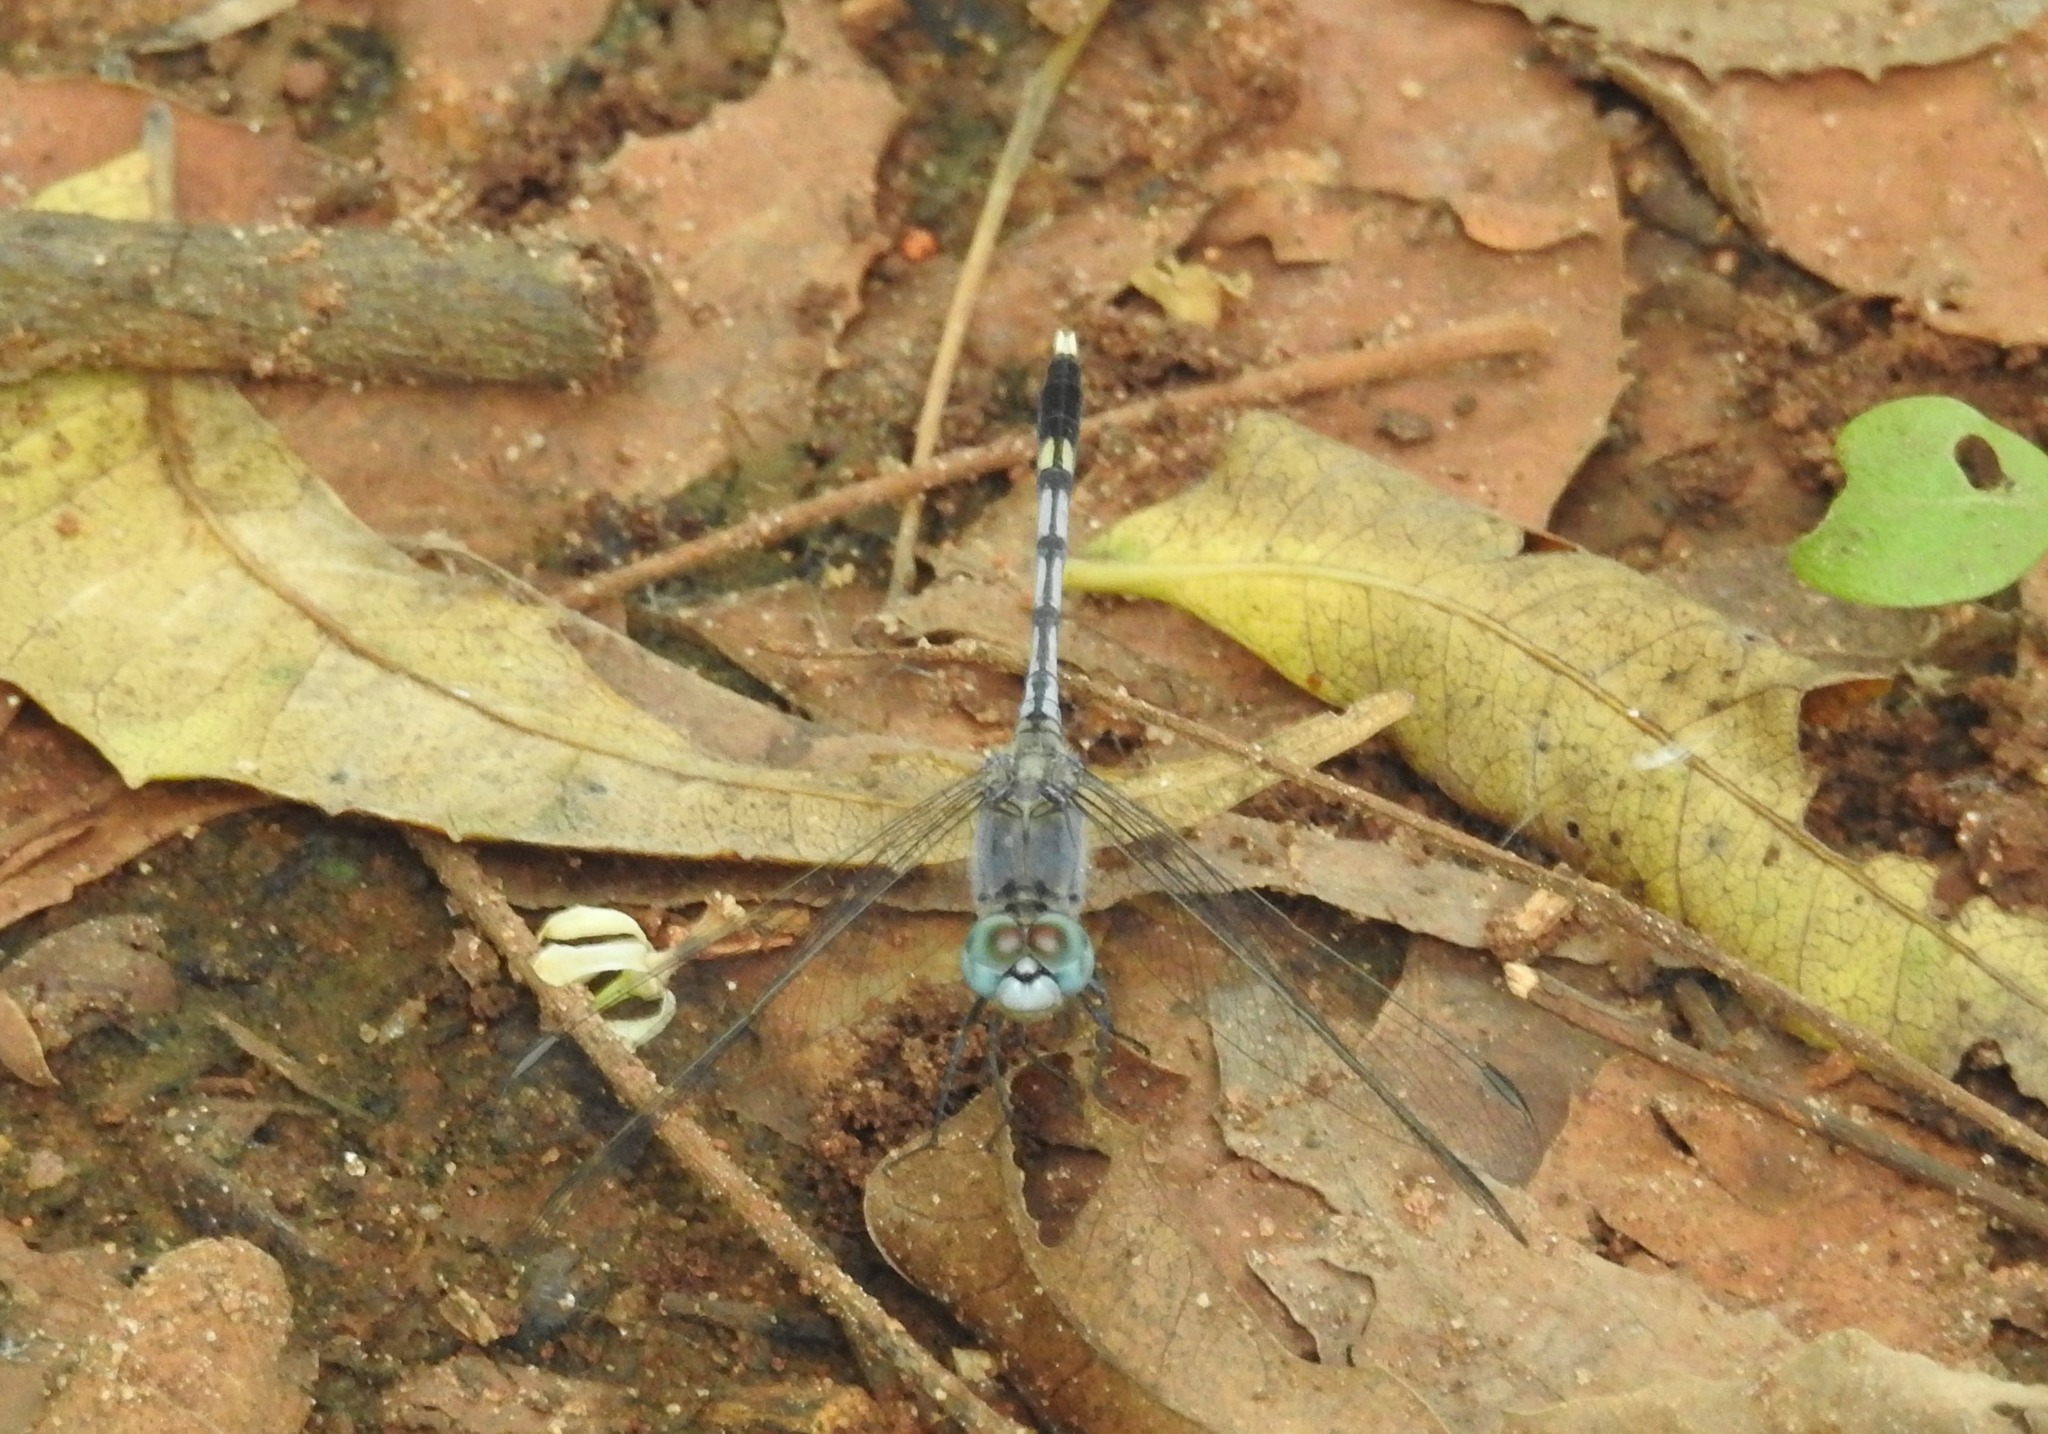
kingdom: Animalia
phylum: Arthropoda
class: Insecta
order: Odonata
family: Libellulidae
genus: Diplacodes
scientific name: Diplacodes trivialis
